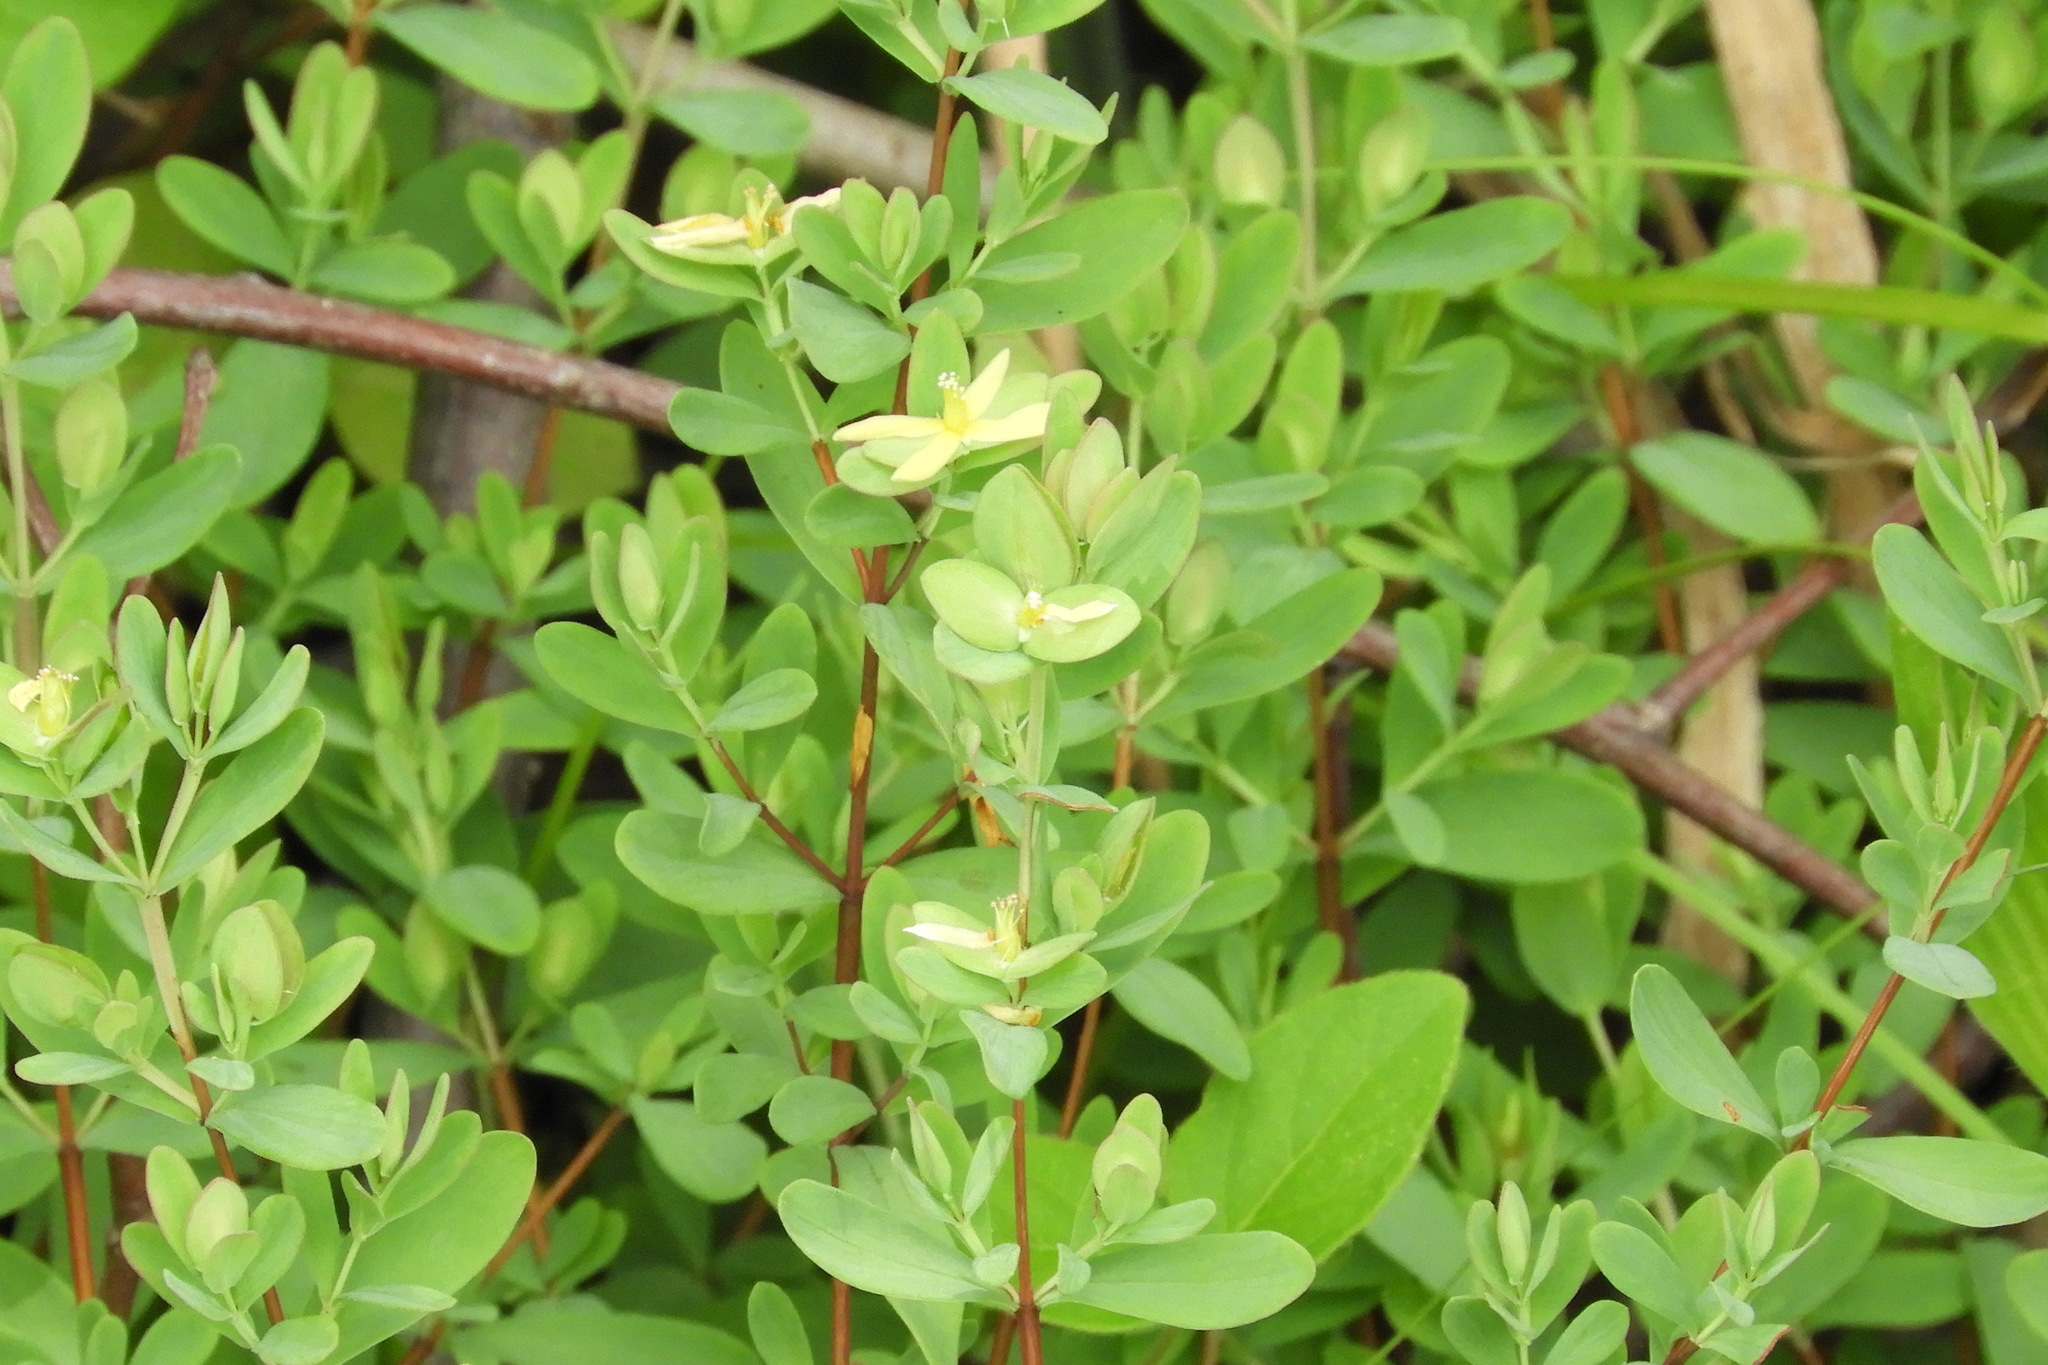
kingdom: Plantae
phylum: Tracheophyta
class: Magnoliopsida
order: Malpighiales
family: Hypericaceae
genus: Hypericum
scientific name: Hypericum hypericoides
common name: St. andrew's cross
